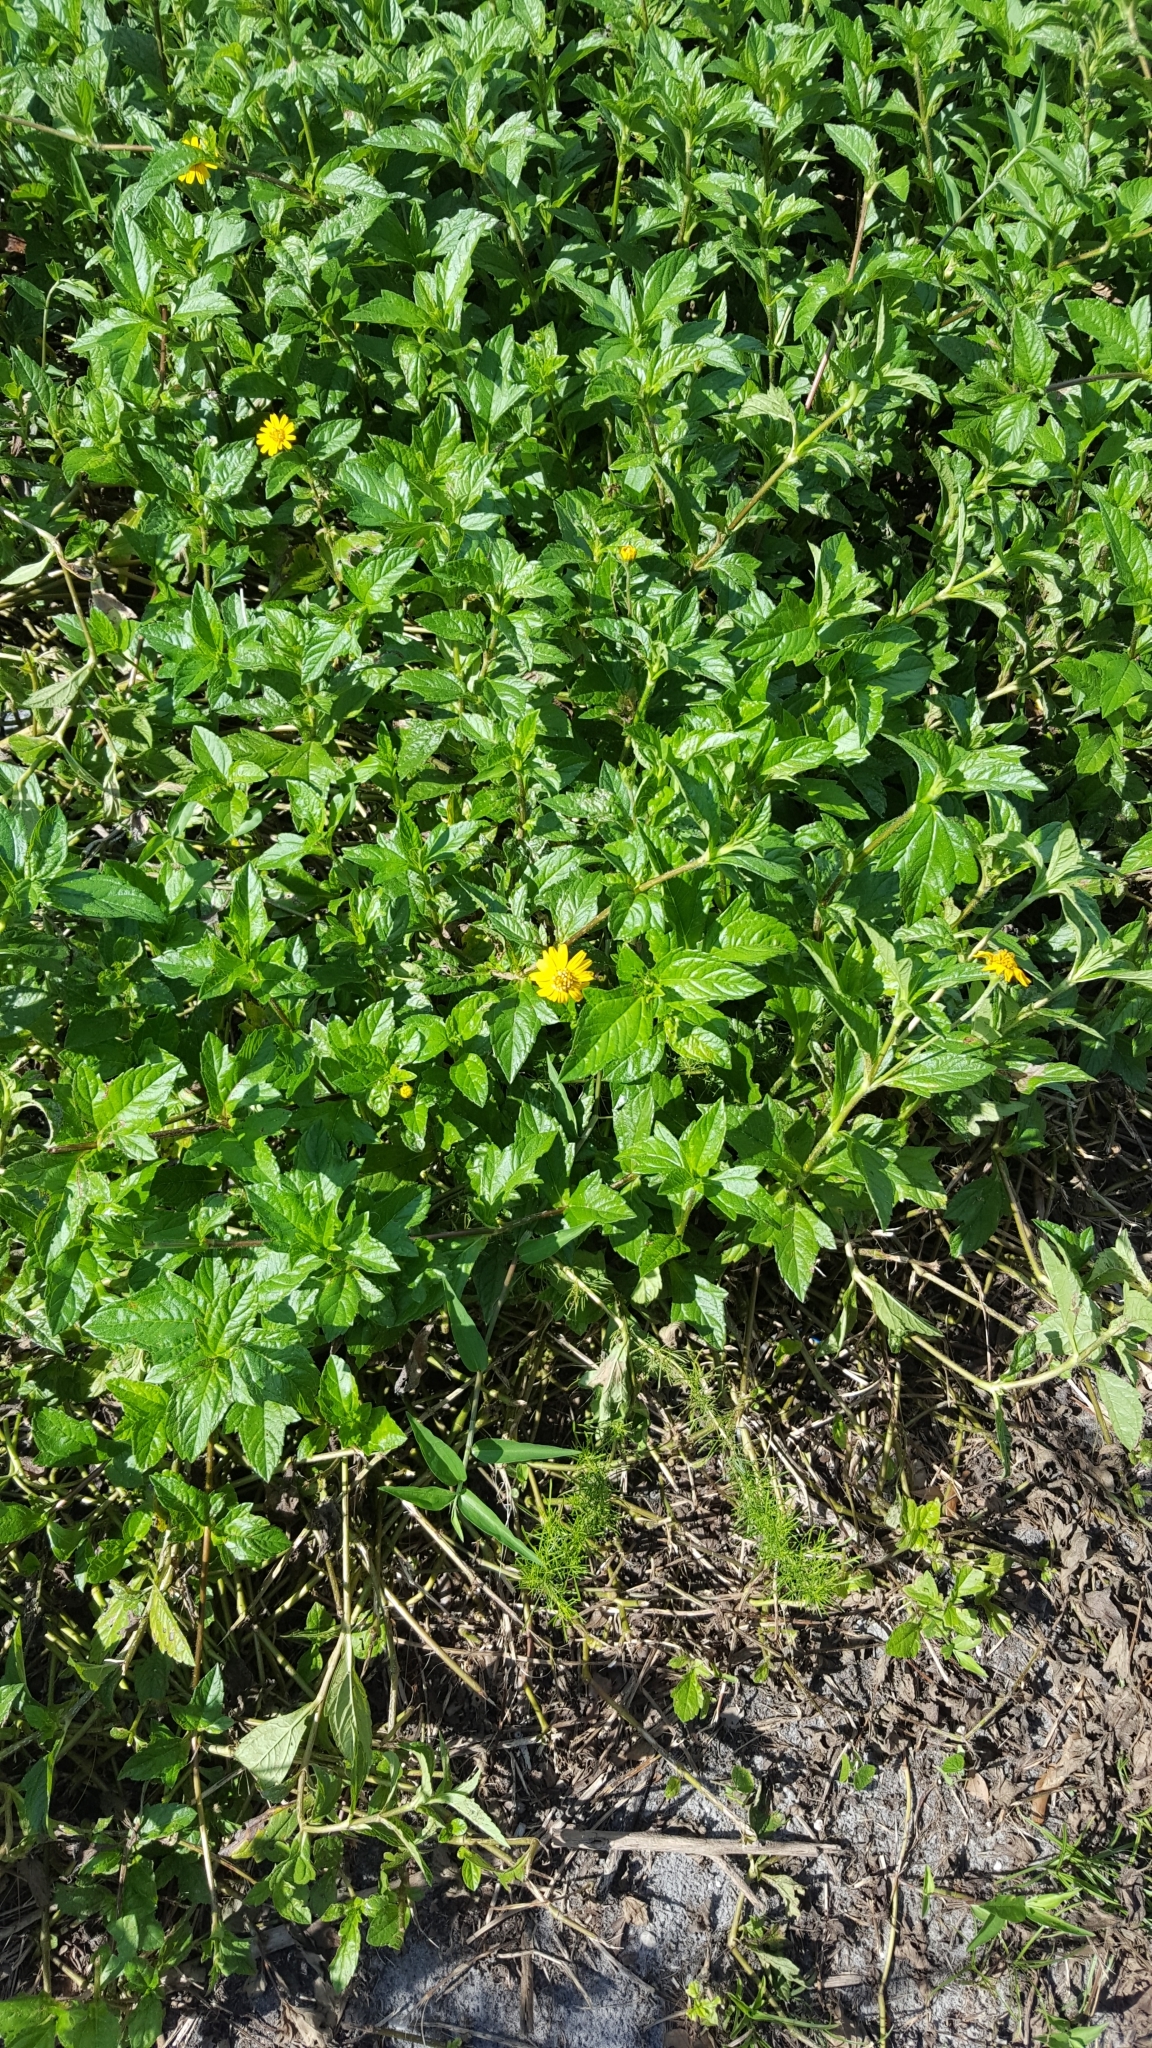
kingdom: Plantae
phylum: Tracheophyta
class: Magnoliopsida
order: Asterales
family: Asteraceae
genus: Sphagneticola
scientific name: Sphagneticola trilobata
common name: Bay biscayne creeping-oxeye
